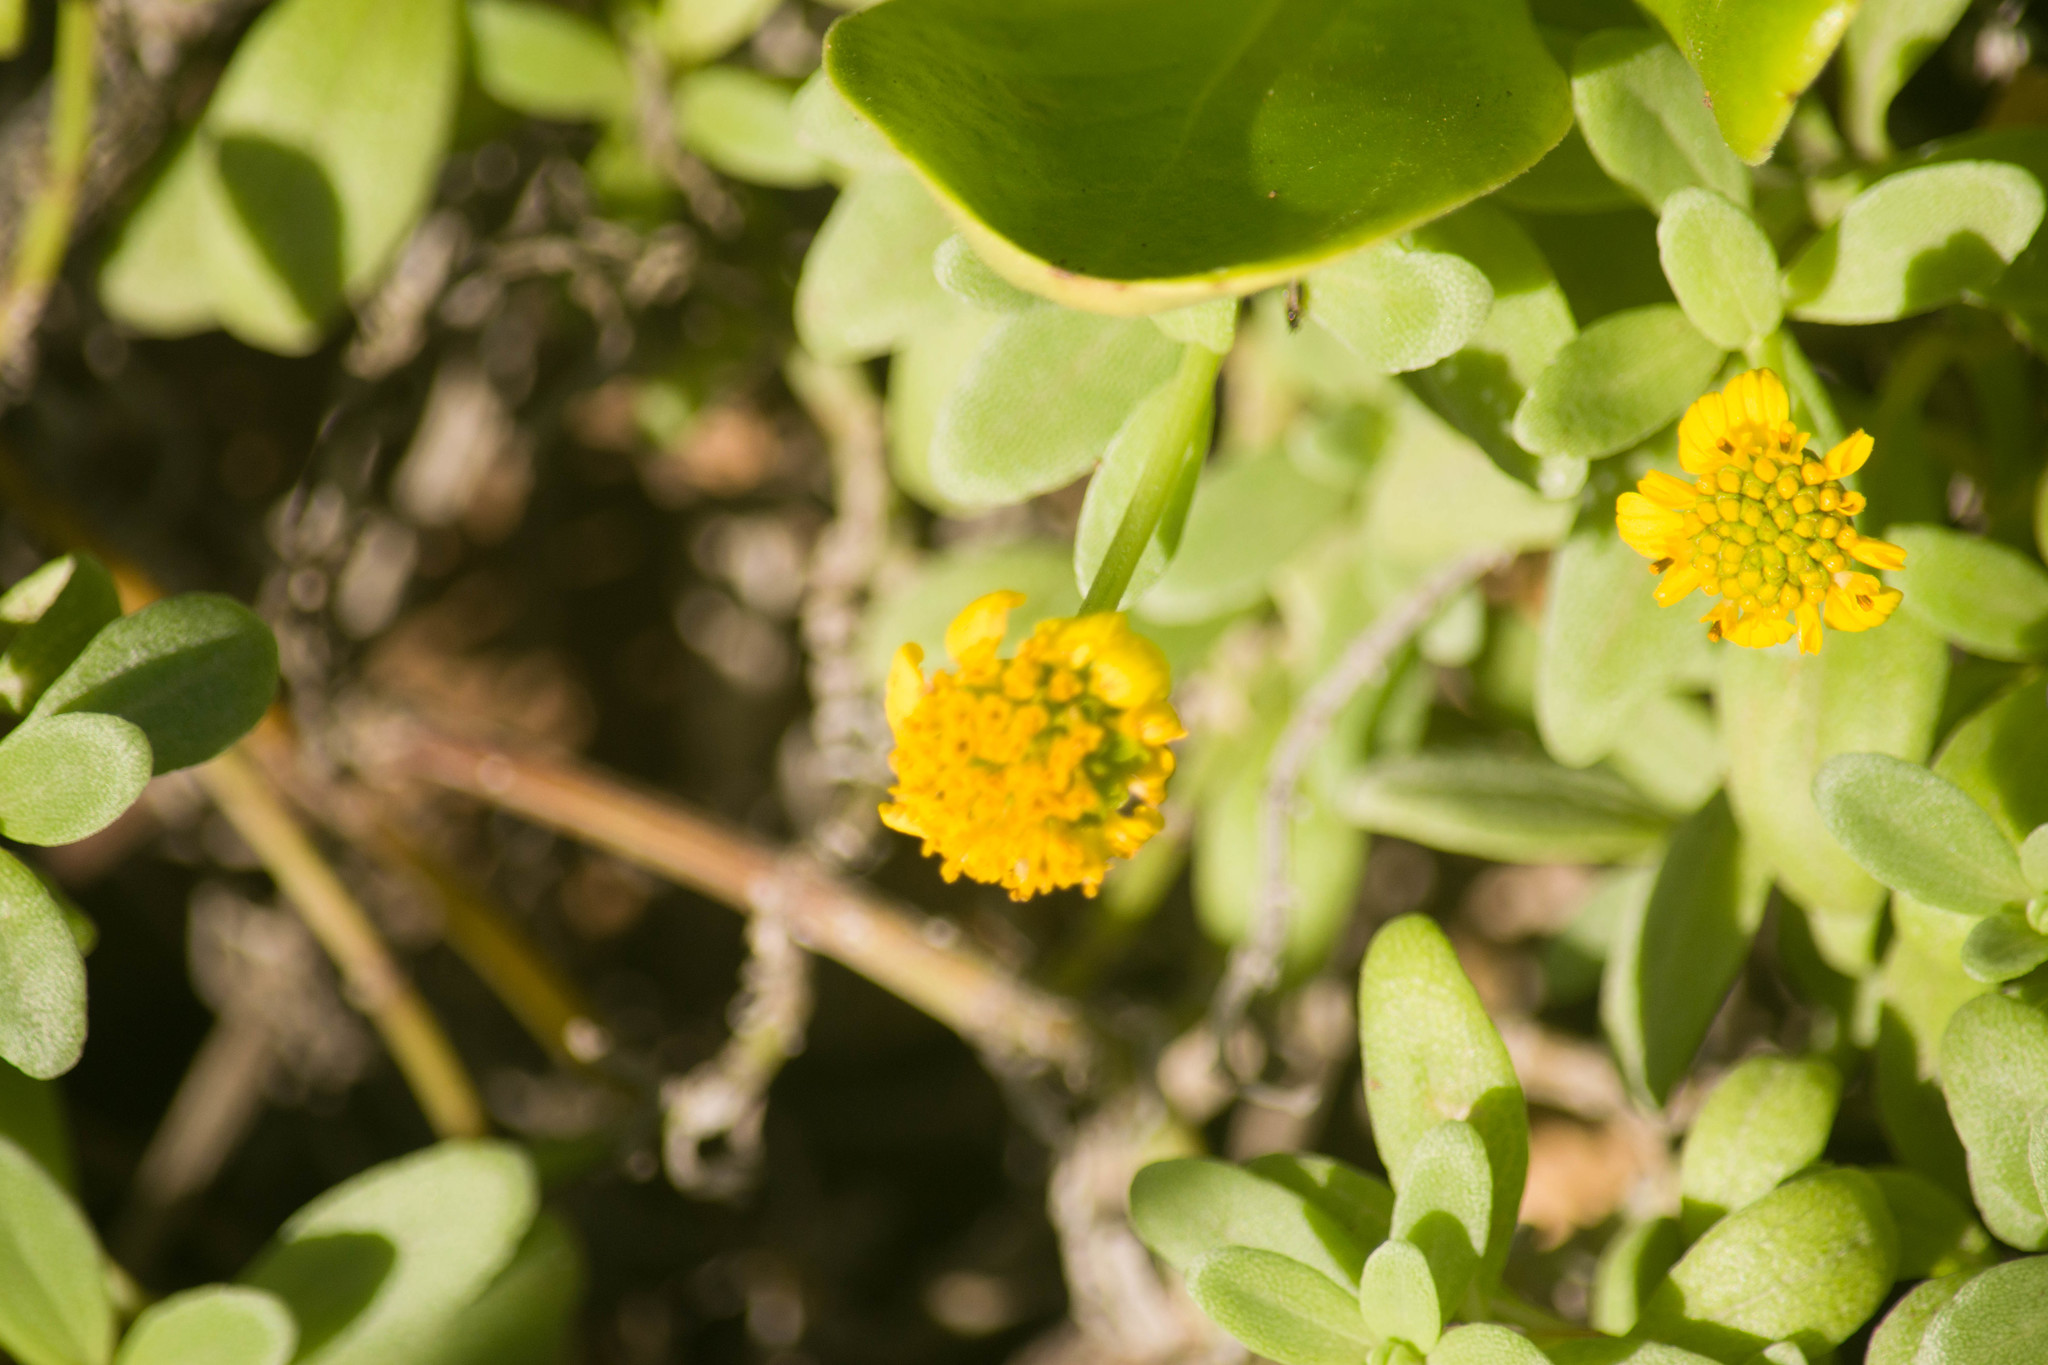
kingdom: Plantae
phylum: Tracheophyta
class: Magnoliopsida
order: Asterales
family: Asteraceae
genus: Lipochaeta
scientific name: Lipochaeta integrifolia
